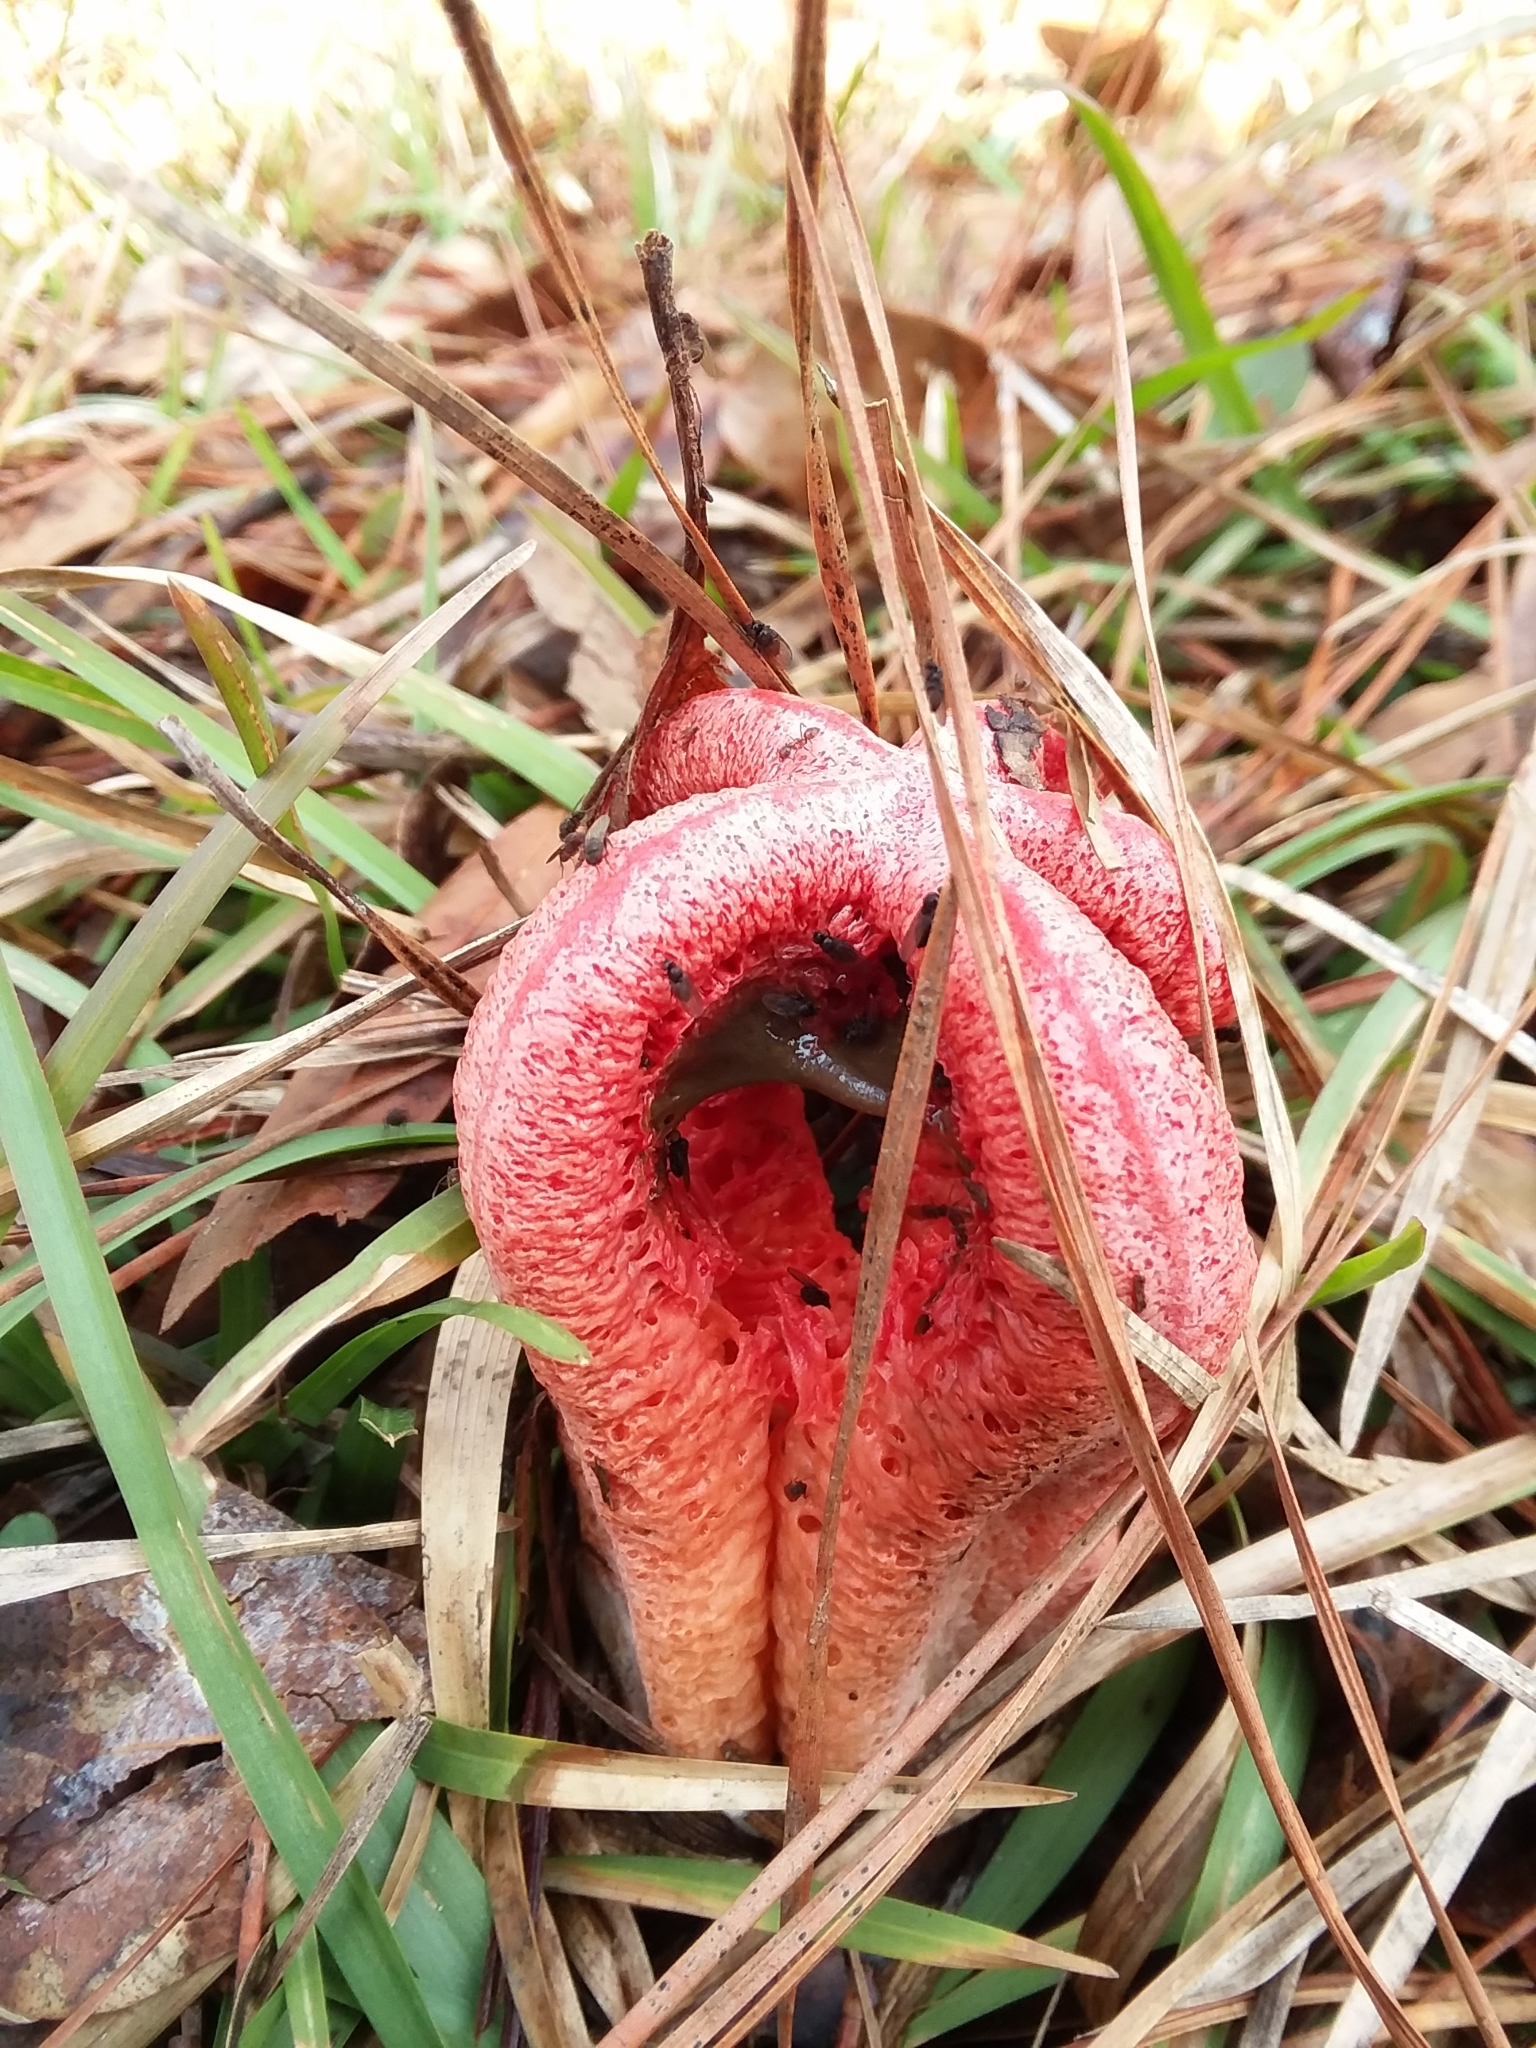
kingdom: Fungi
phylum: Basidiomycota
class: Agaricomycetes
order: Phallales
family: Phallaceae
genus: Clathrus
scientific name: Clathrus columnatus
